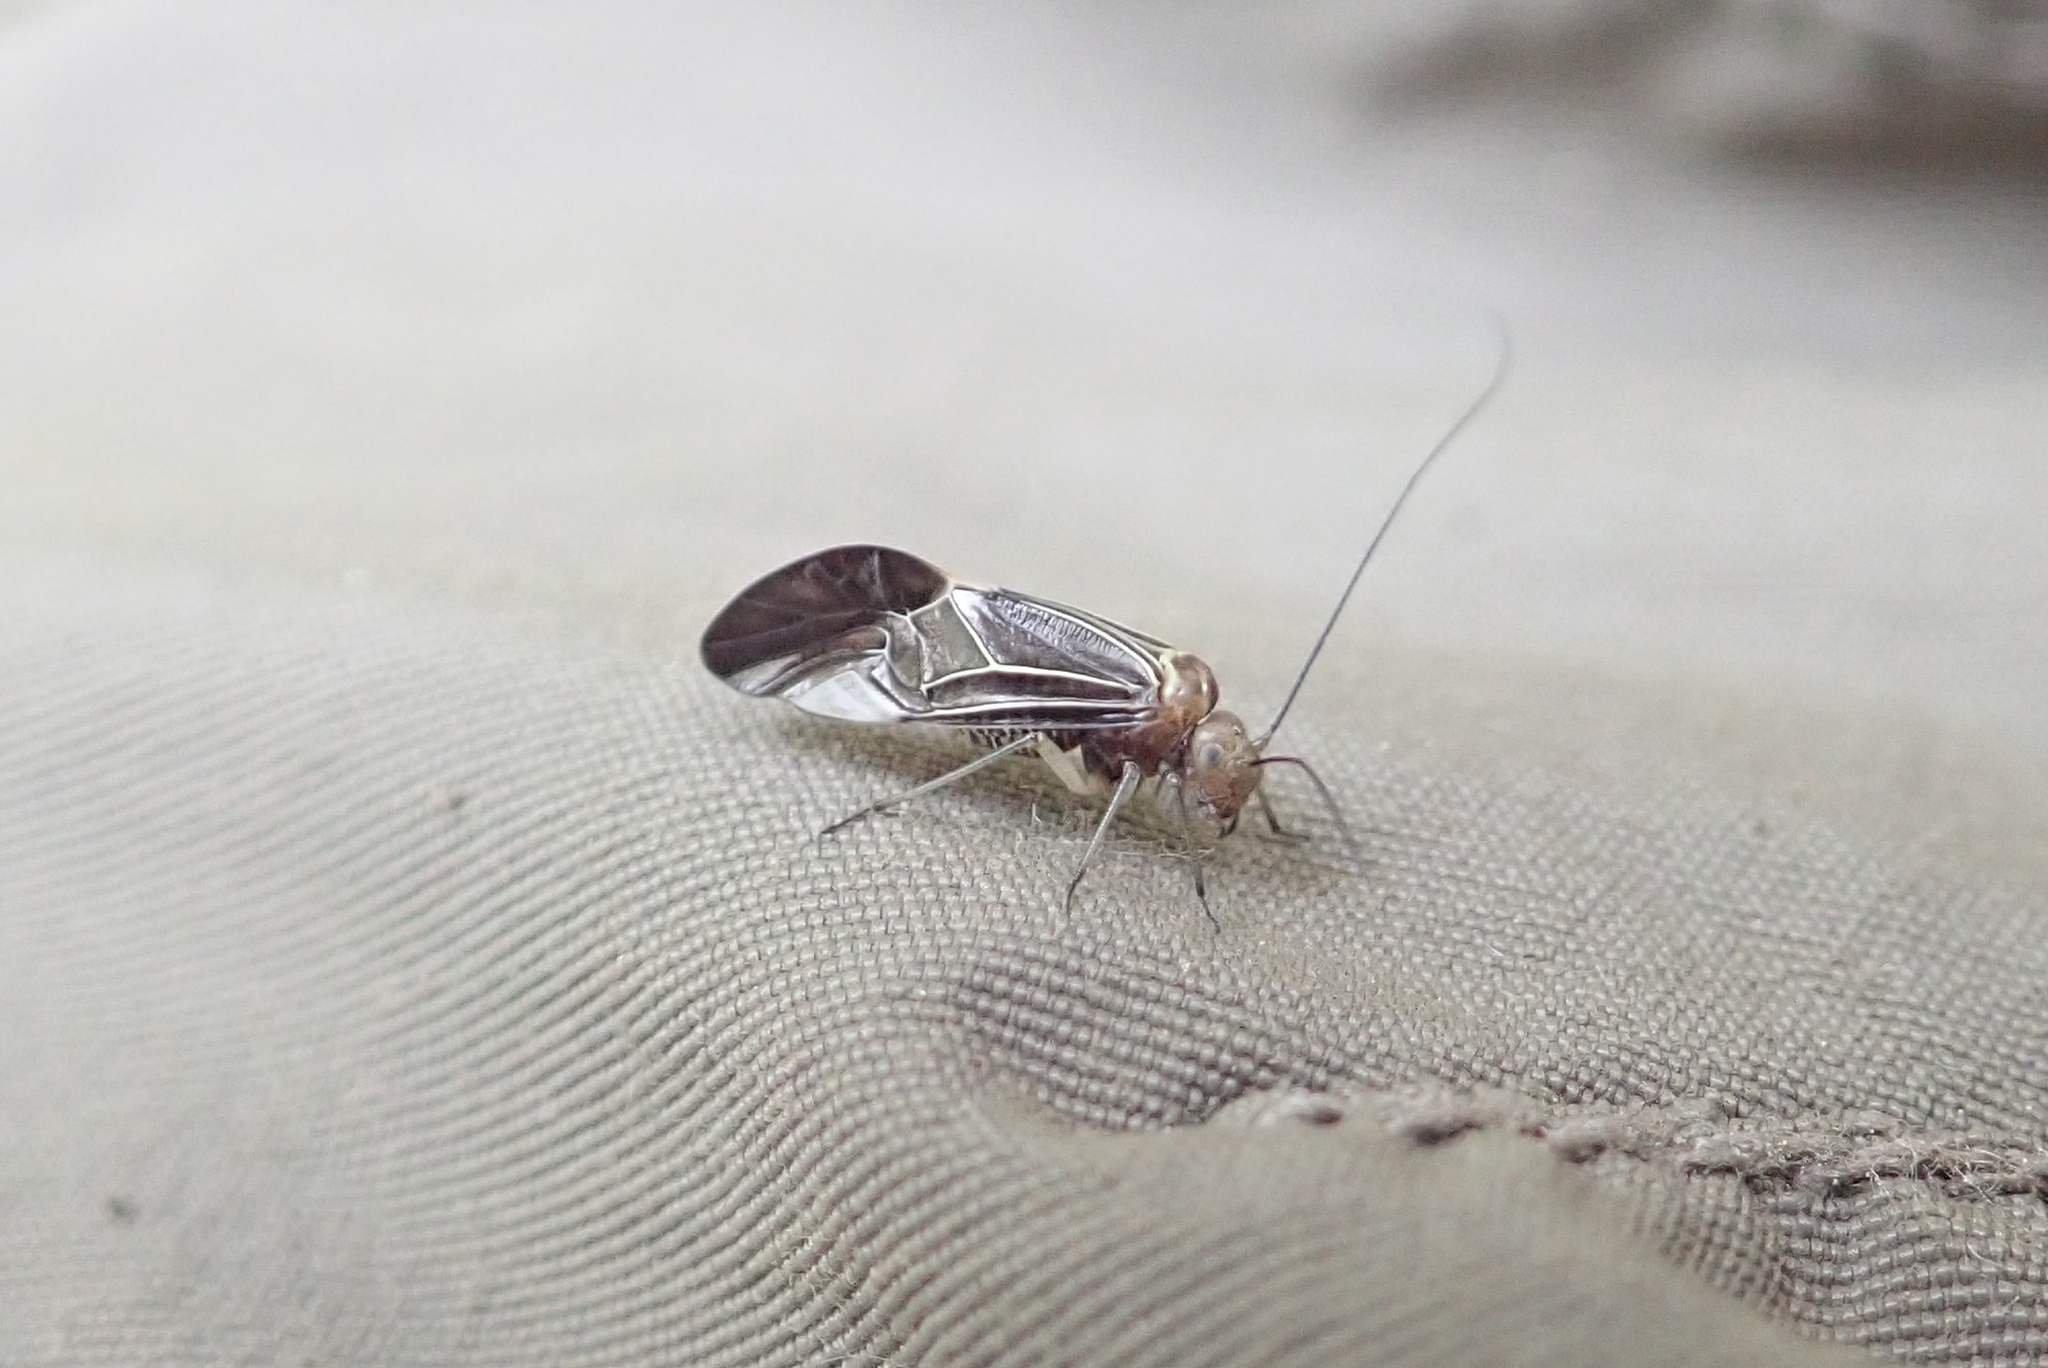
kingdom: Animalia
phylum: Arthropoda
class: Insecta
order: Psocodea
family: Psocidae
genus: Cerastipsocus
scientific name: Cerastipsocus venosus
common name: Tree cattle
